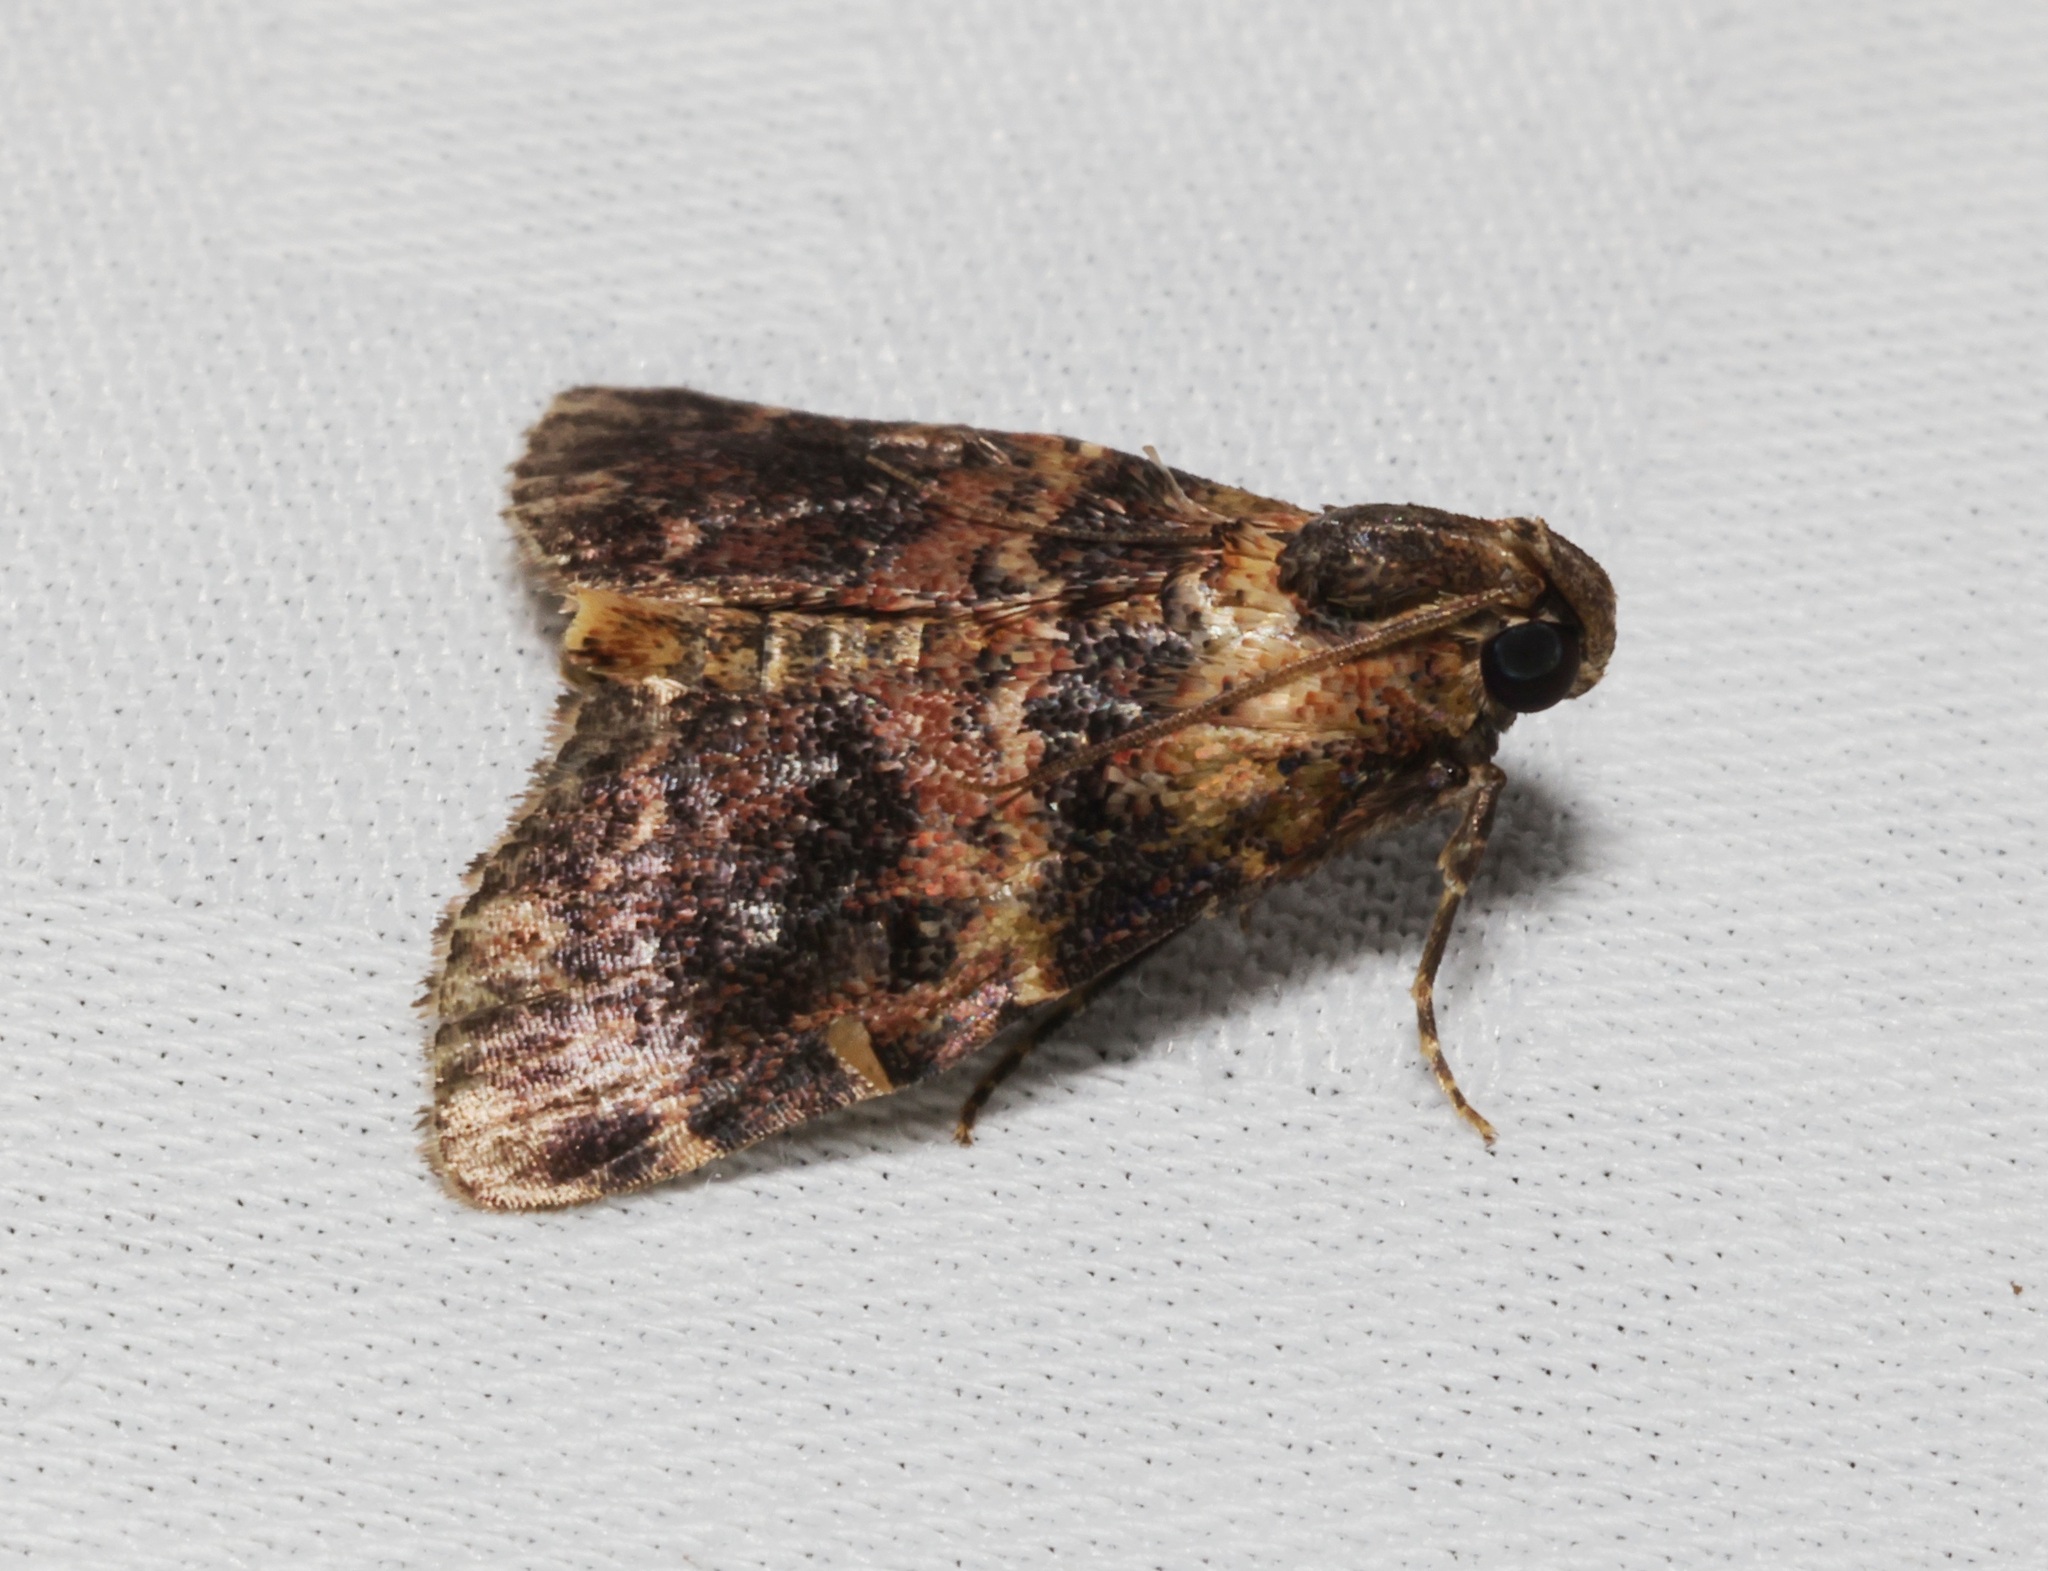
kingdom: Animalia
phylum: Arthropoda
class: Insecta
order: Lepidoptera
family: Pyralidae
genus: Salma
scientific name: Salma
